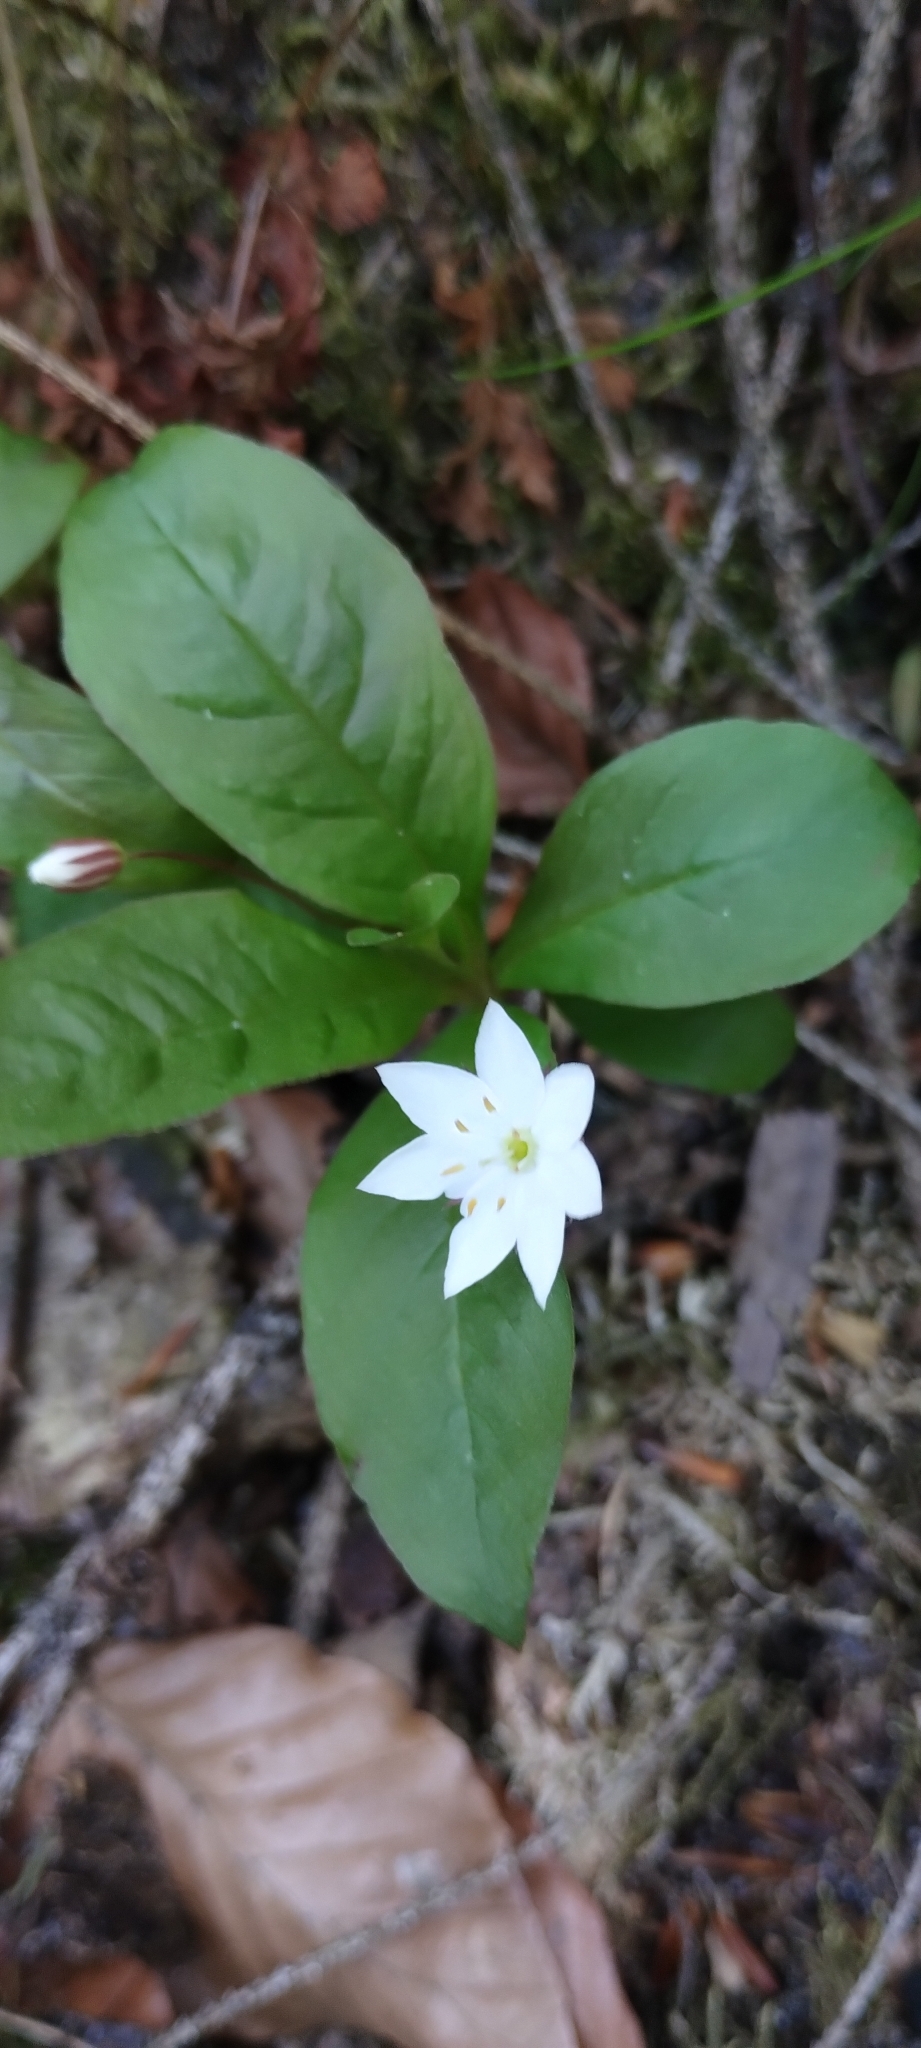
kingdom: Plantae
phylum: Tracheophyta
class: Magnoliopsida
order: Ericales
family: Primulaceae
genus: Lysimachia
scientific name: Lysimachia europaea
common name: Arctic starflower
